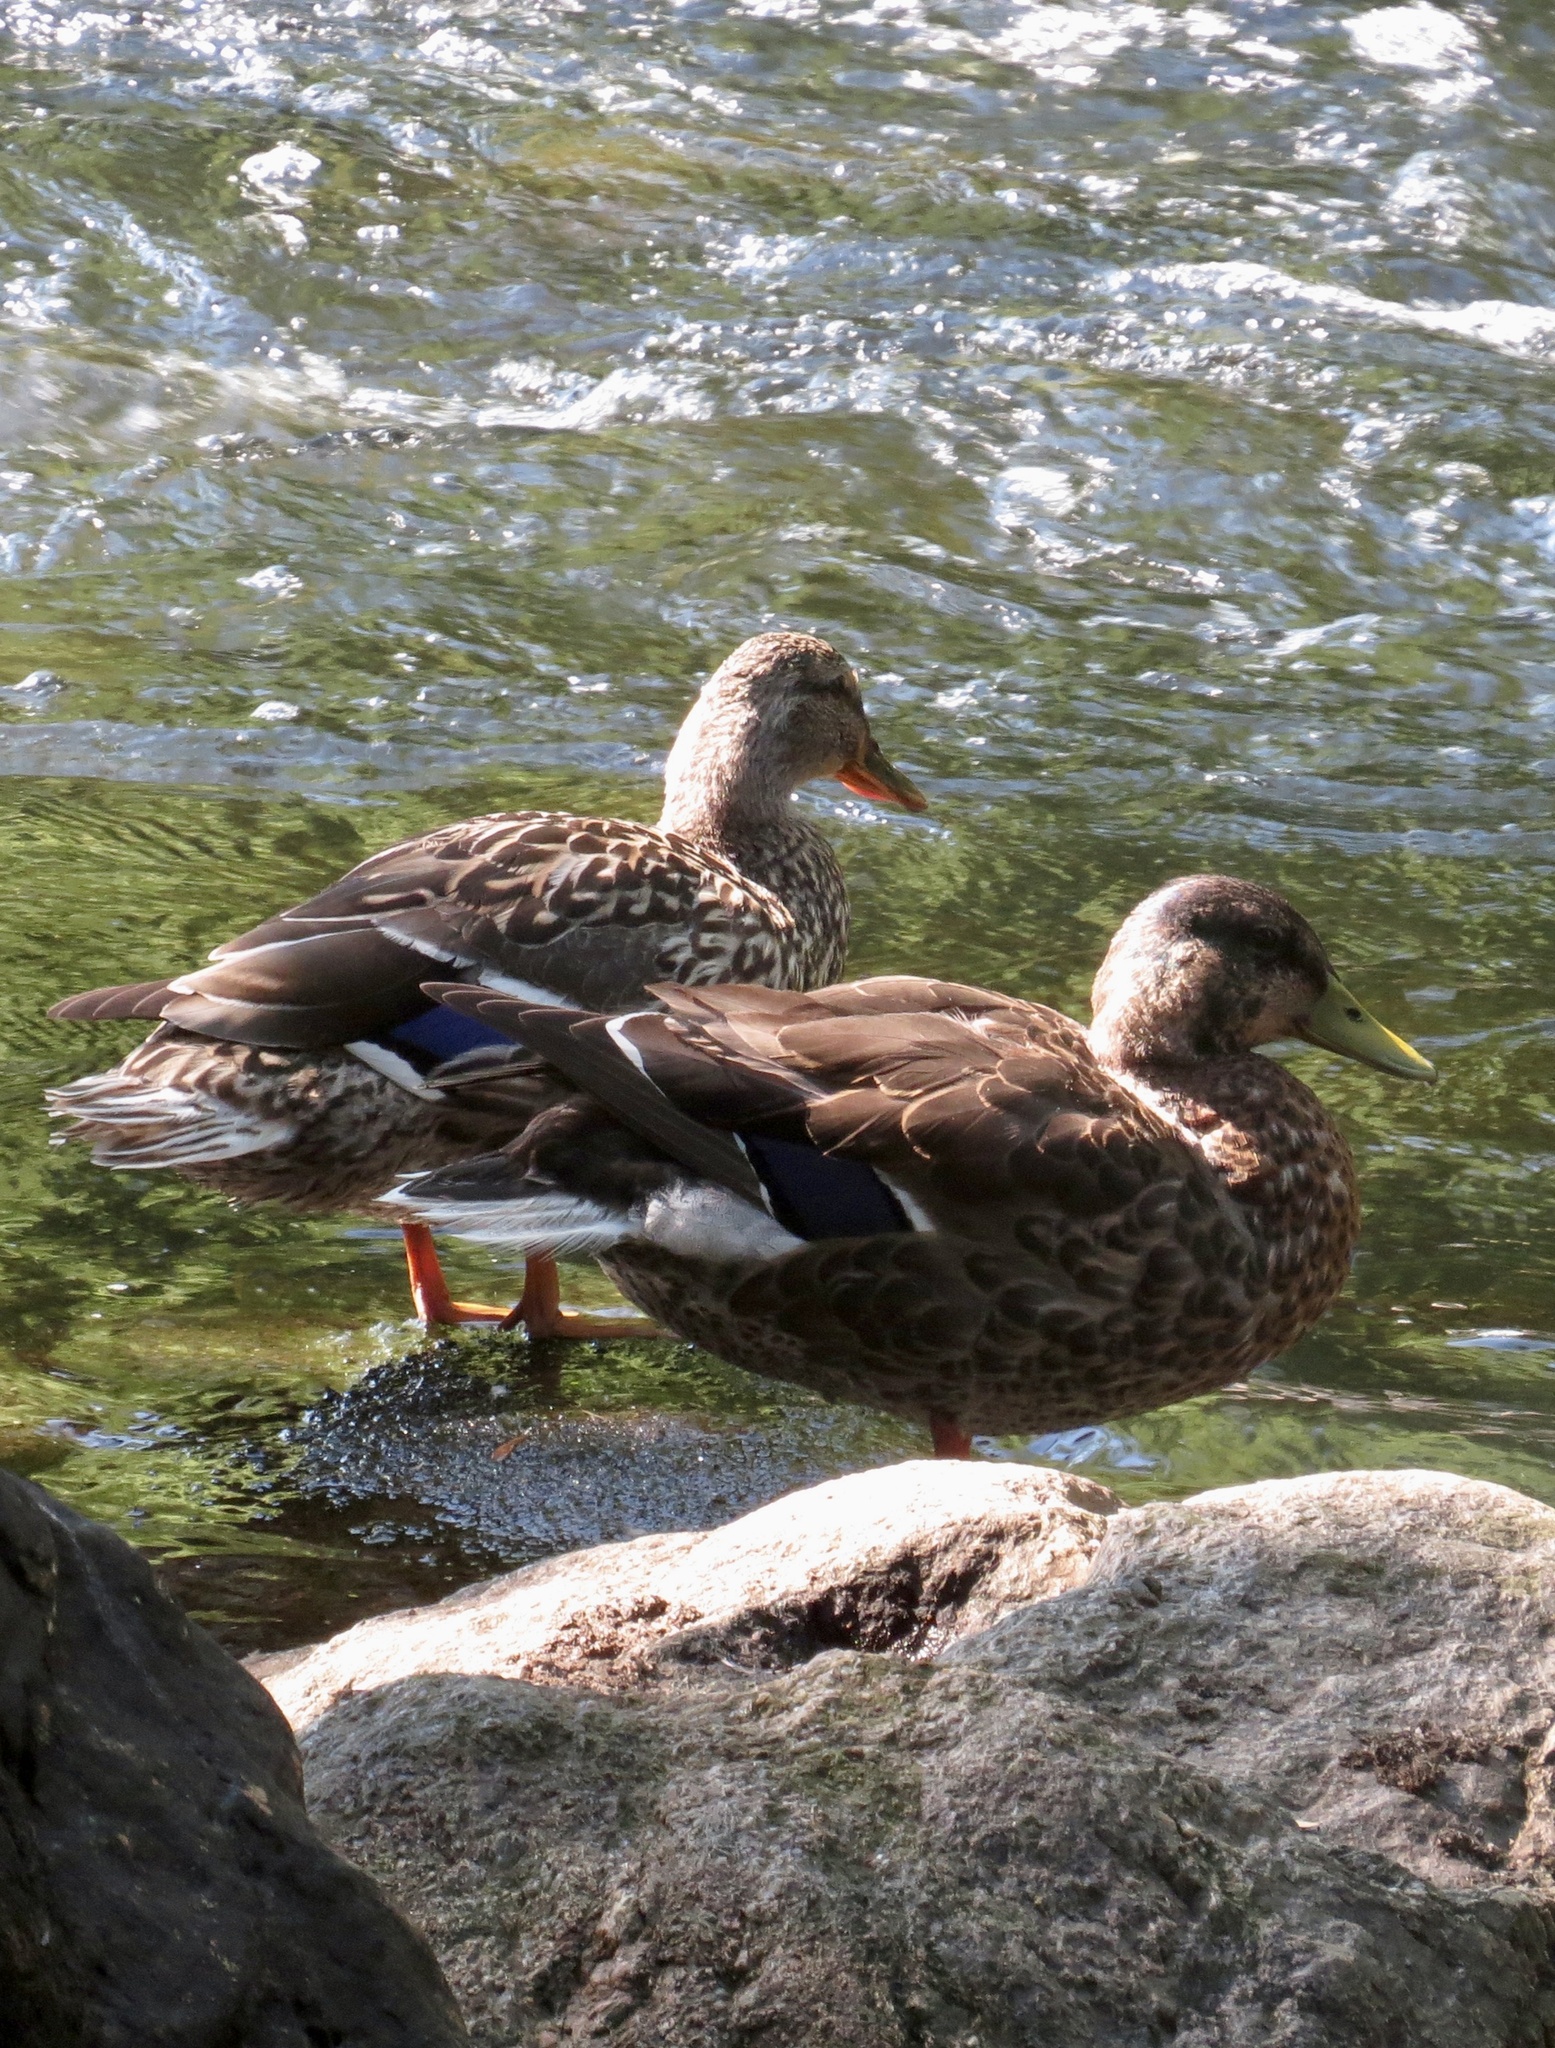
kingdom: Animalia
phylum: Chordata
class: Aves
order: Anseriformes
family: Anatidae
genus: Anas
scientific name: Anas platyrhynchos
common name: Mallard
